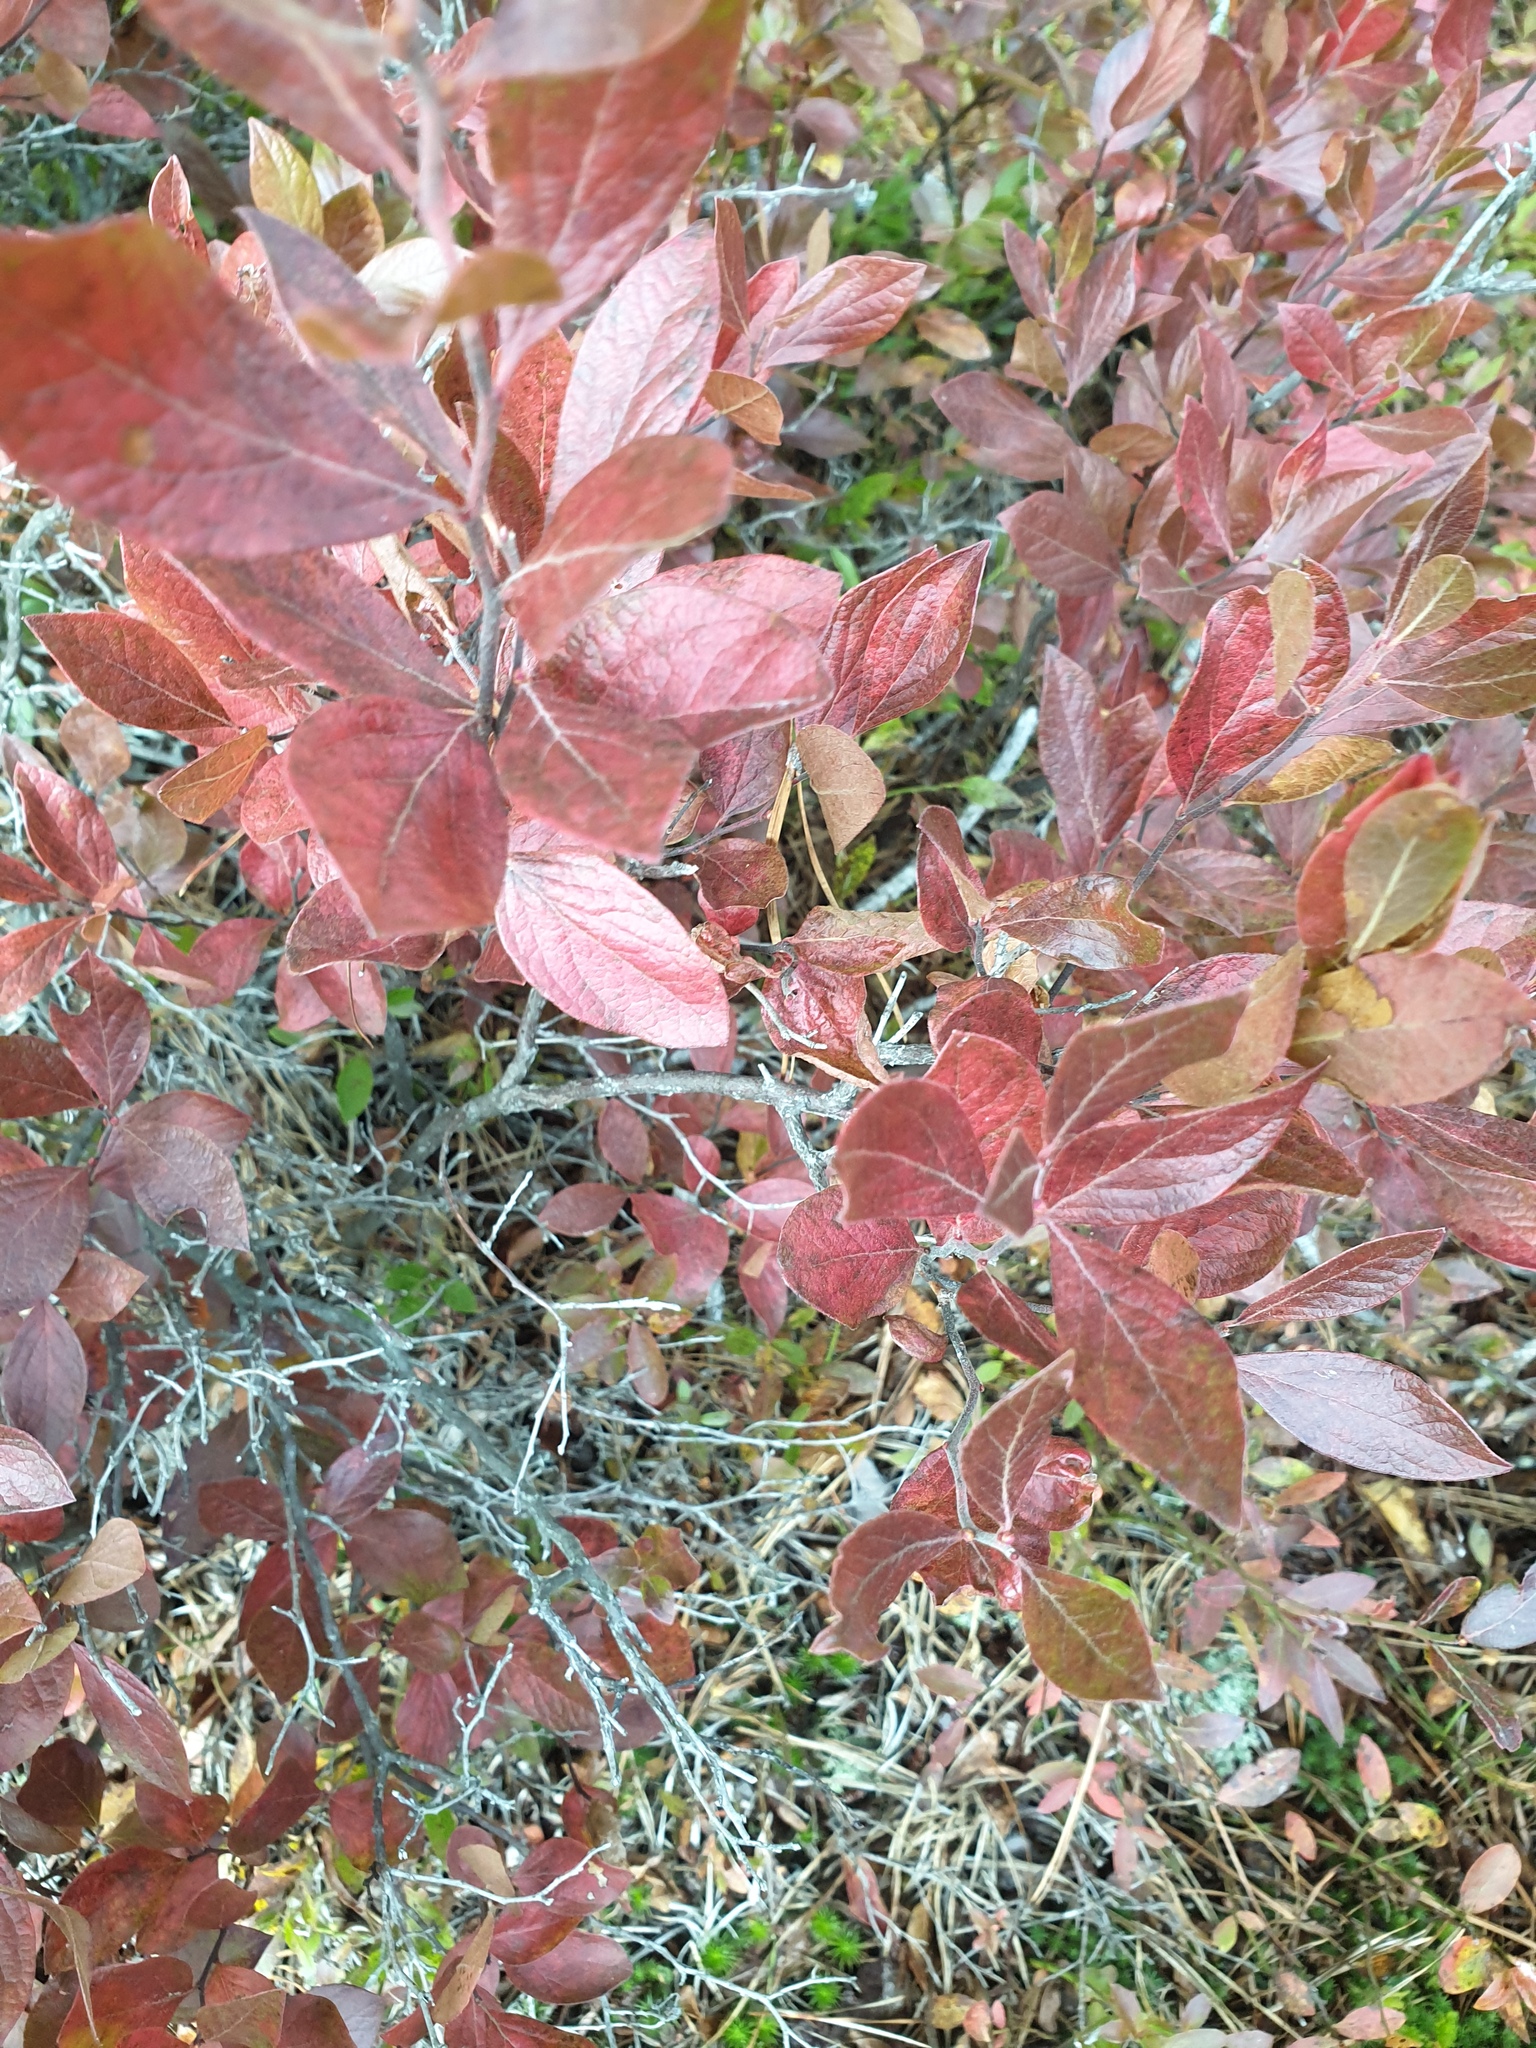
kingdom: Plantae
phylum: Tracheophyta
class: Magnoliopsida
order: Ericales
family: Ericaceae
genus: Gaylussacia
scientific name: Gaylussacia baccata
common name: Black huckleberry
